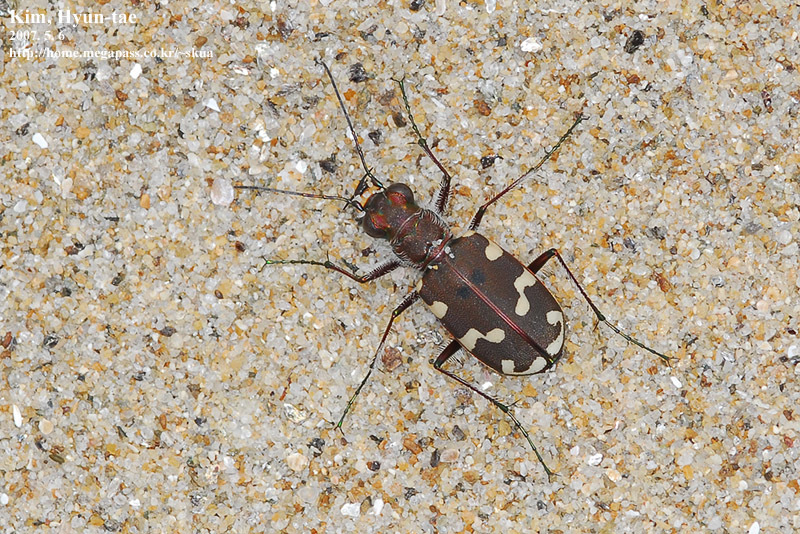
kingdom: Animalia
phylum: Arthropoda
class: Insecta
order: Coleoptera
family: Carabidae
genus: Cicindela
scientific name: Cicindela transbaicalica
